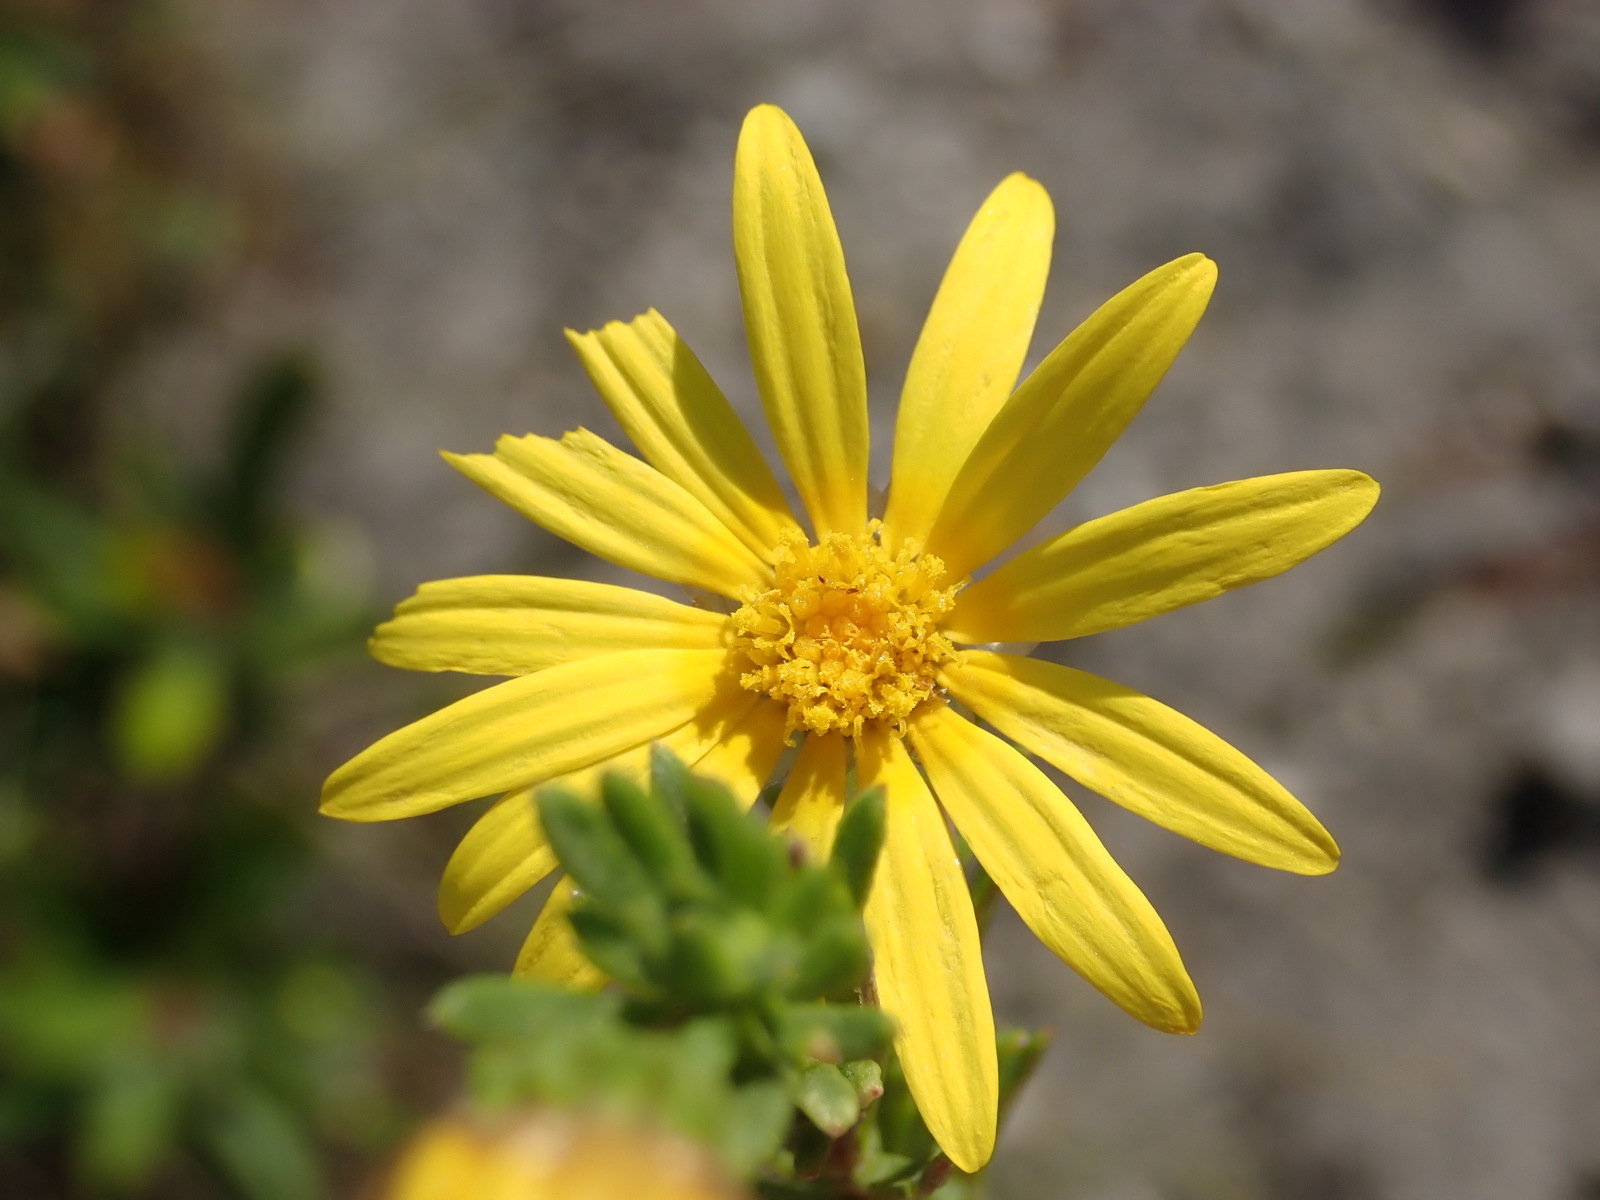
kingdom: Plantae
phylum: Tracheophyta
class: Magnoliopsida
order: Asterales
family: Asteraceae
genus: Ursinia
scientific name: Ursinia trifida
